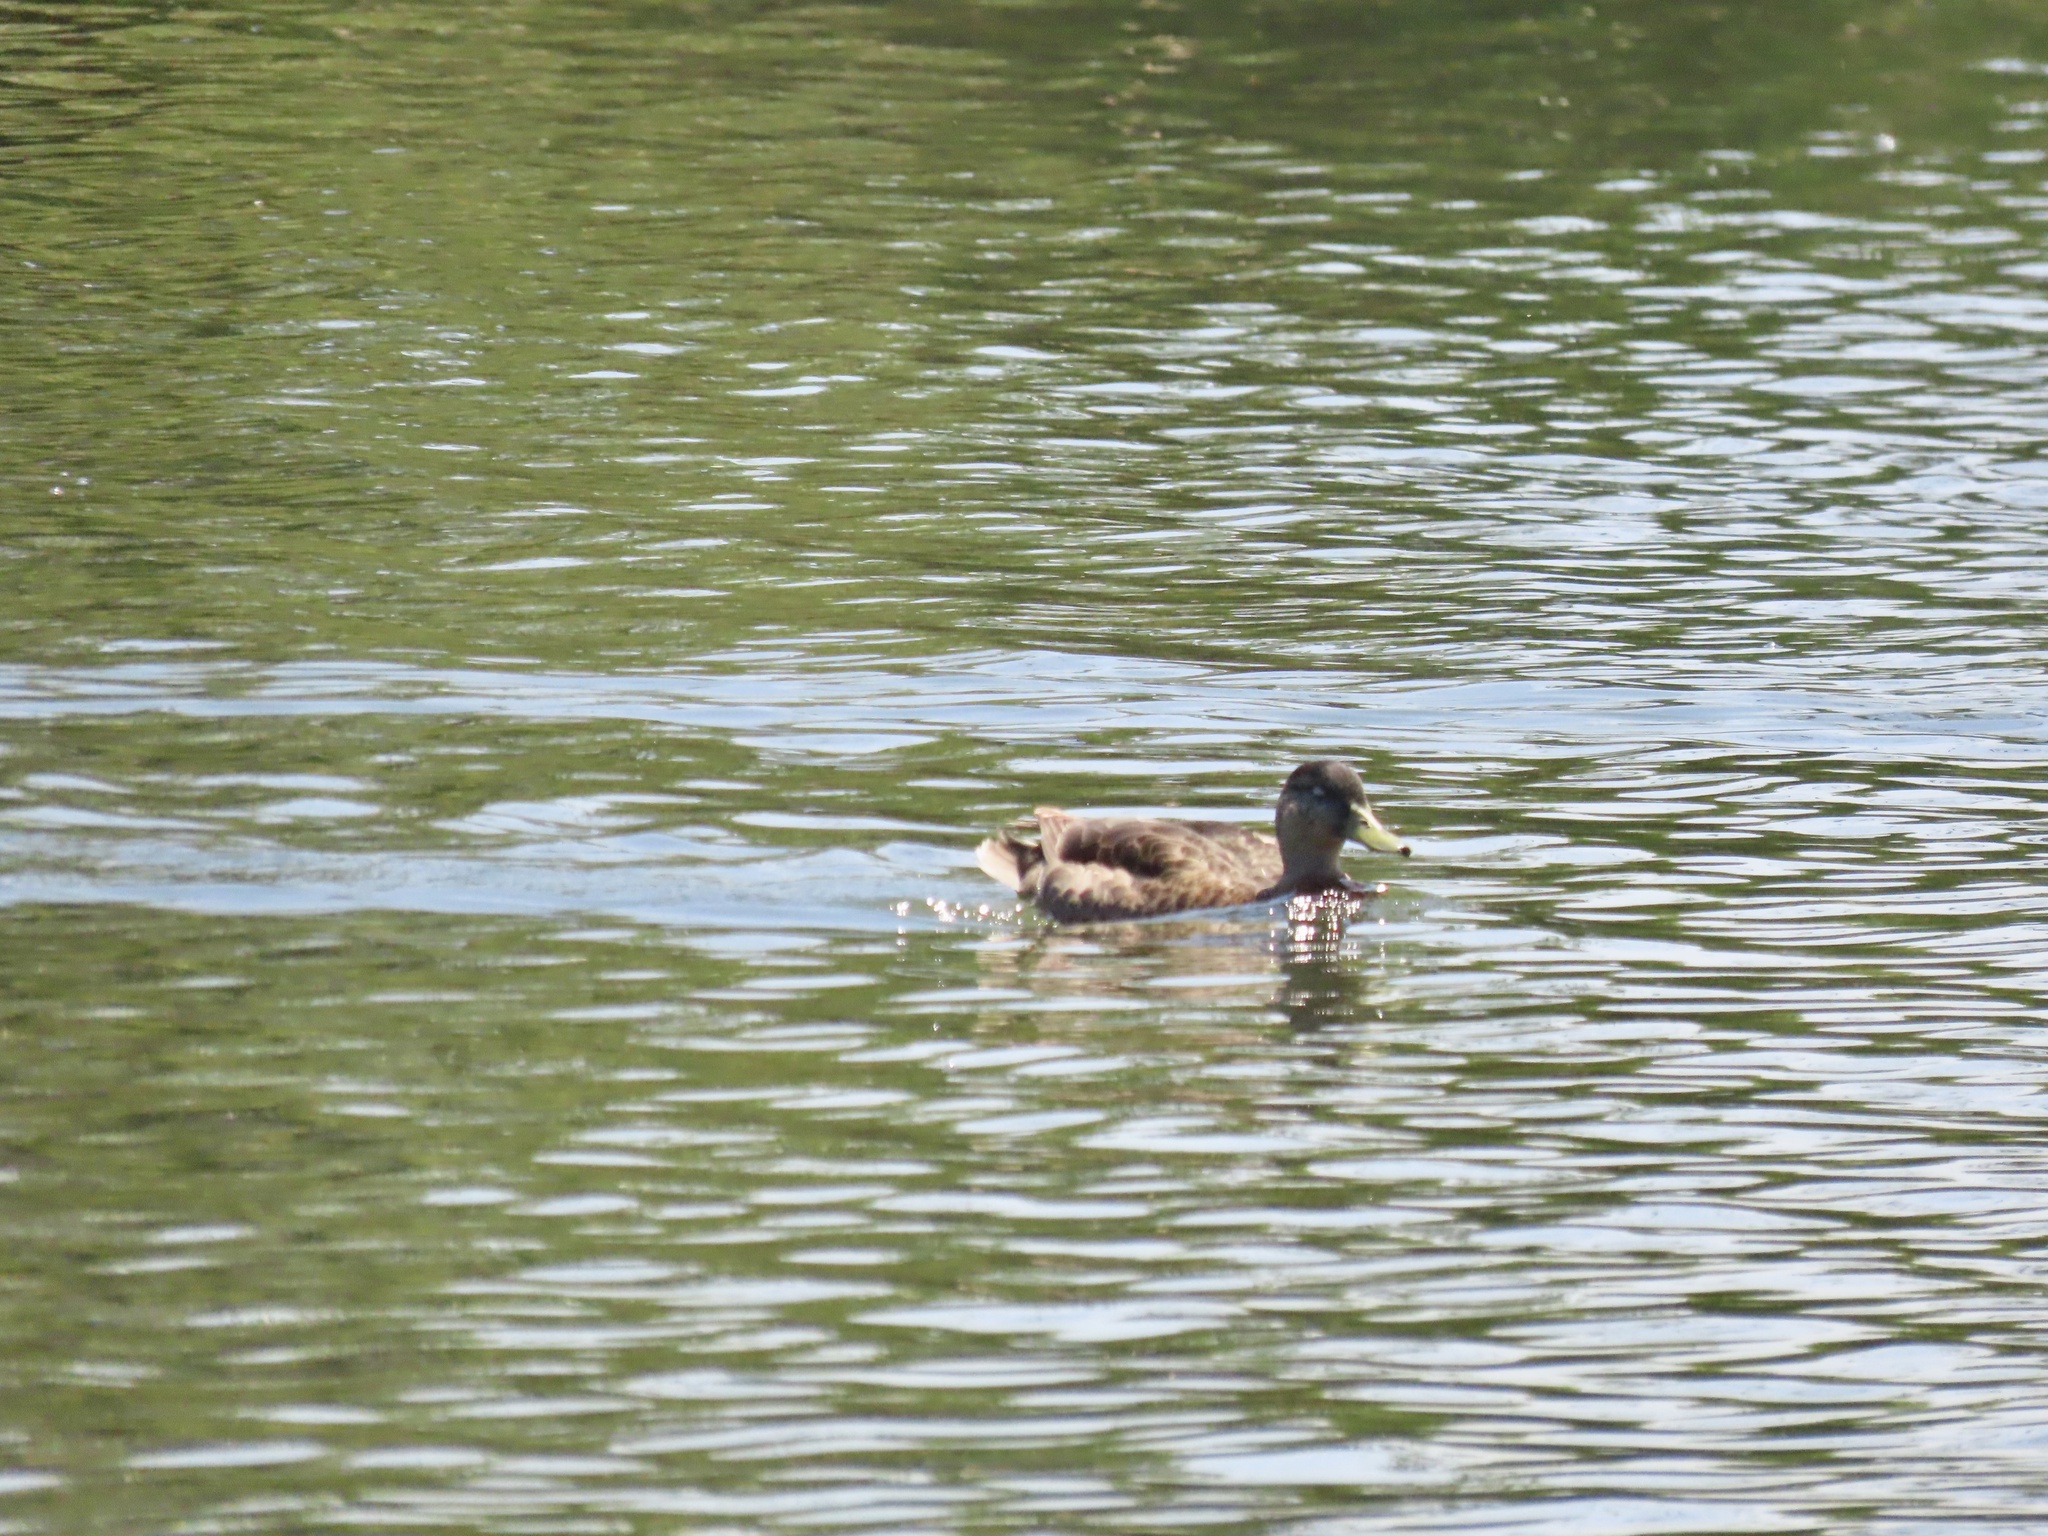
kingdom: Animalia
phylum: Chordata
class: Aves
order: Anseriformes
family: Anatidae
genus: Anas
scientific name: Anas platyrhynchos
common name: Mallard
